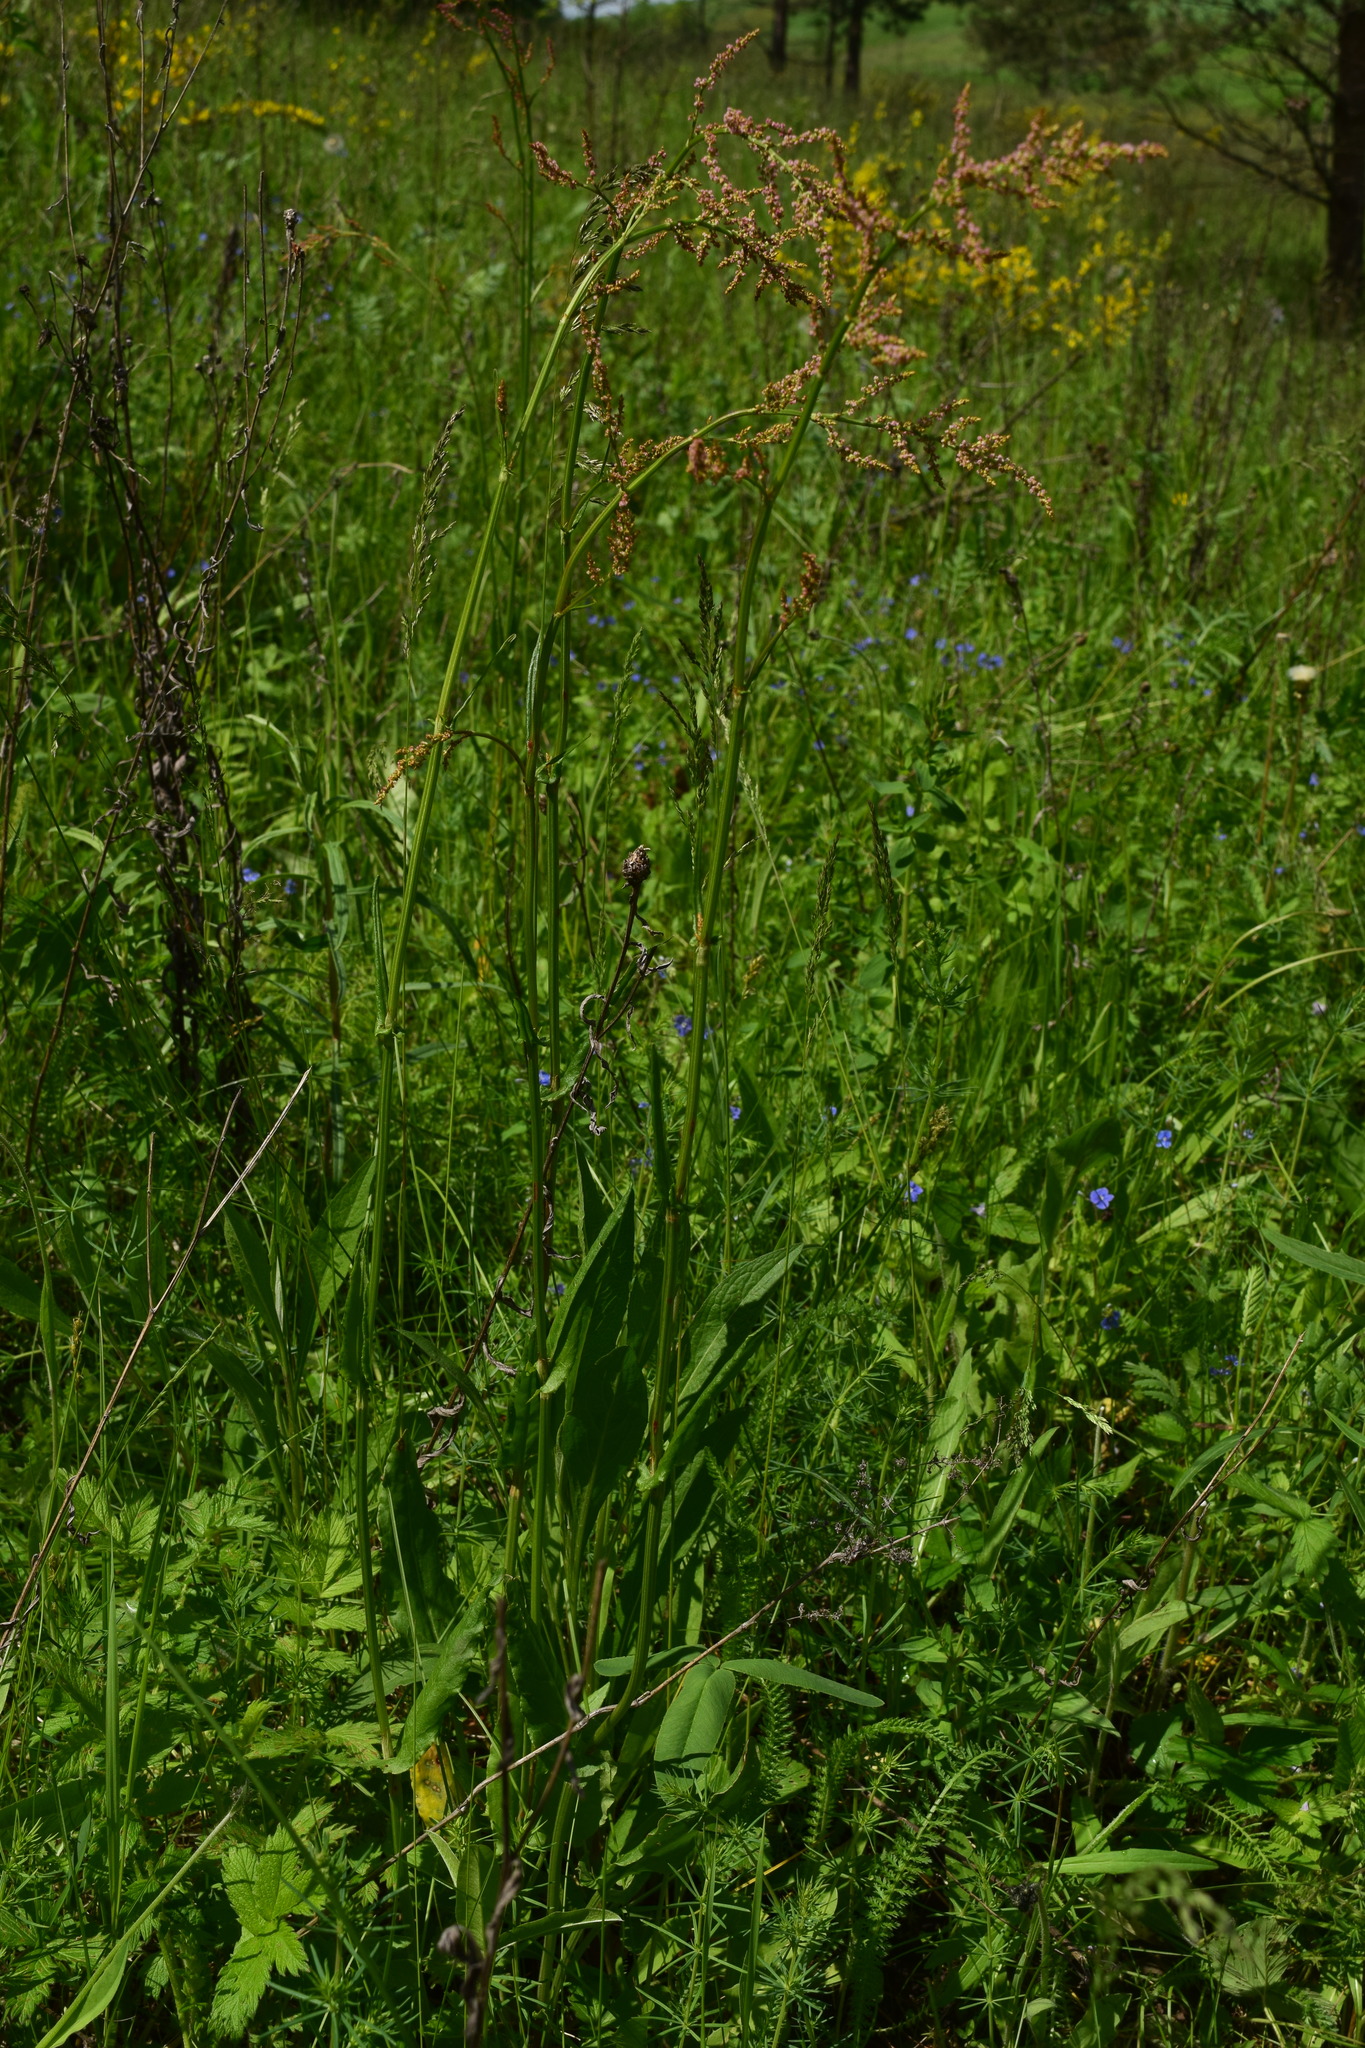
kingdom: Plantae
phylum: Tracheophyta
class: Magnoliopsida
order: Caryophyllales
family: Polygonaceae
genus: Rumex
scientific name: Rumex acetosa
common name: Garden sorrel
